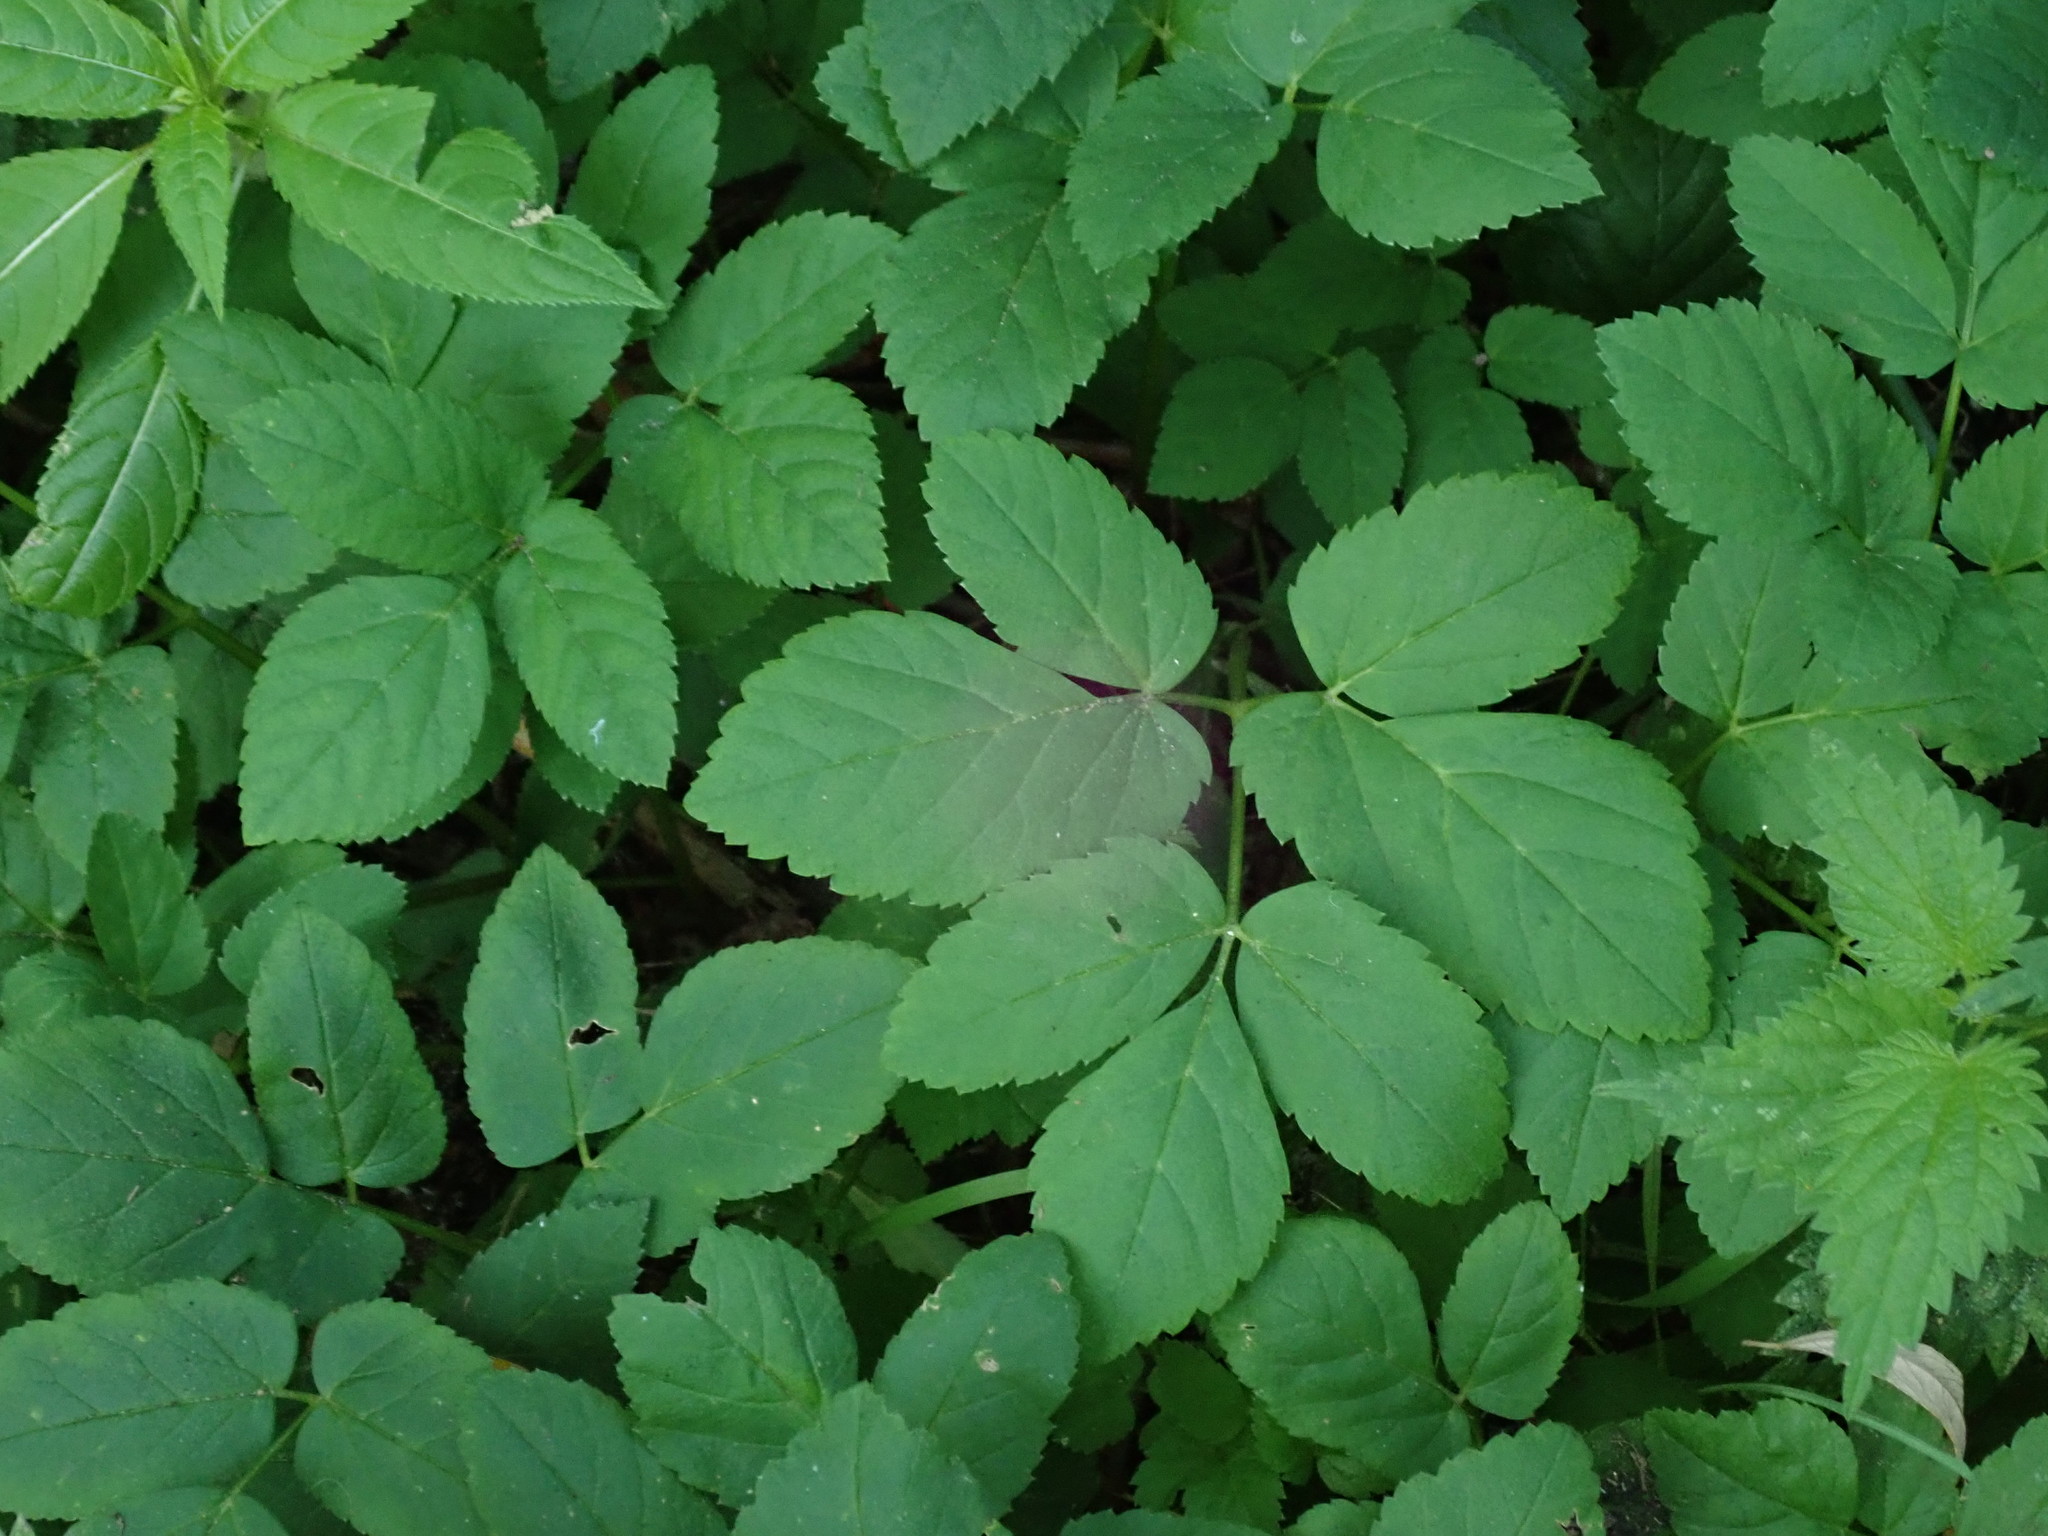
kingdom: Plantae
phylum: Tracheophyta
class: Magnoliopsida
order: Apiales
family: Apiaceae
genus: Aegopodium
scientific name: Aegopodium podagraria
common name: Ground-elder
